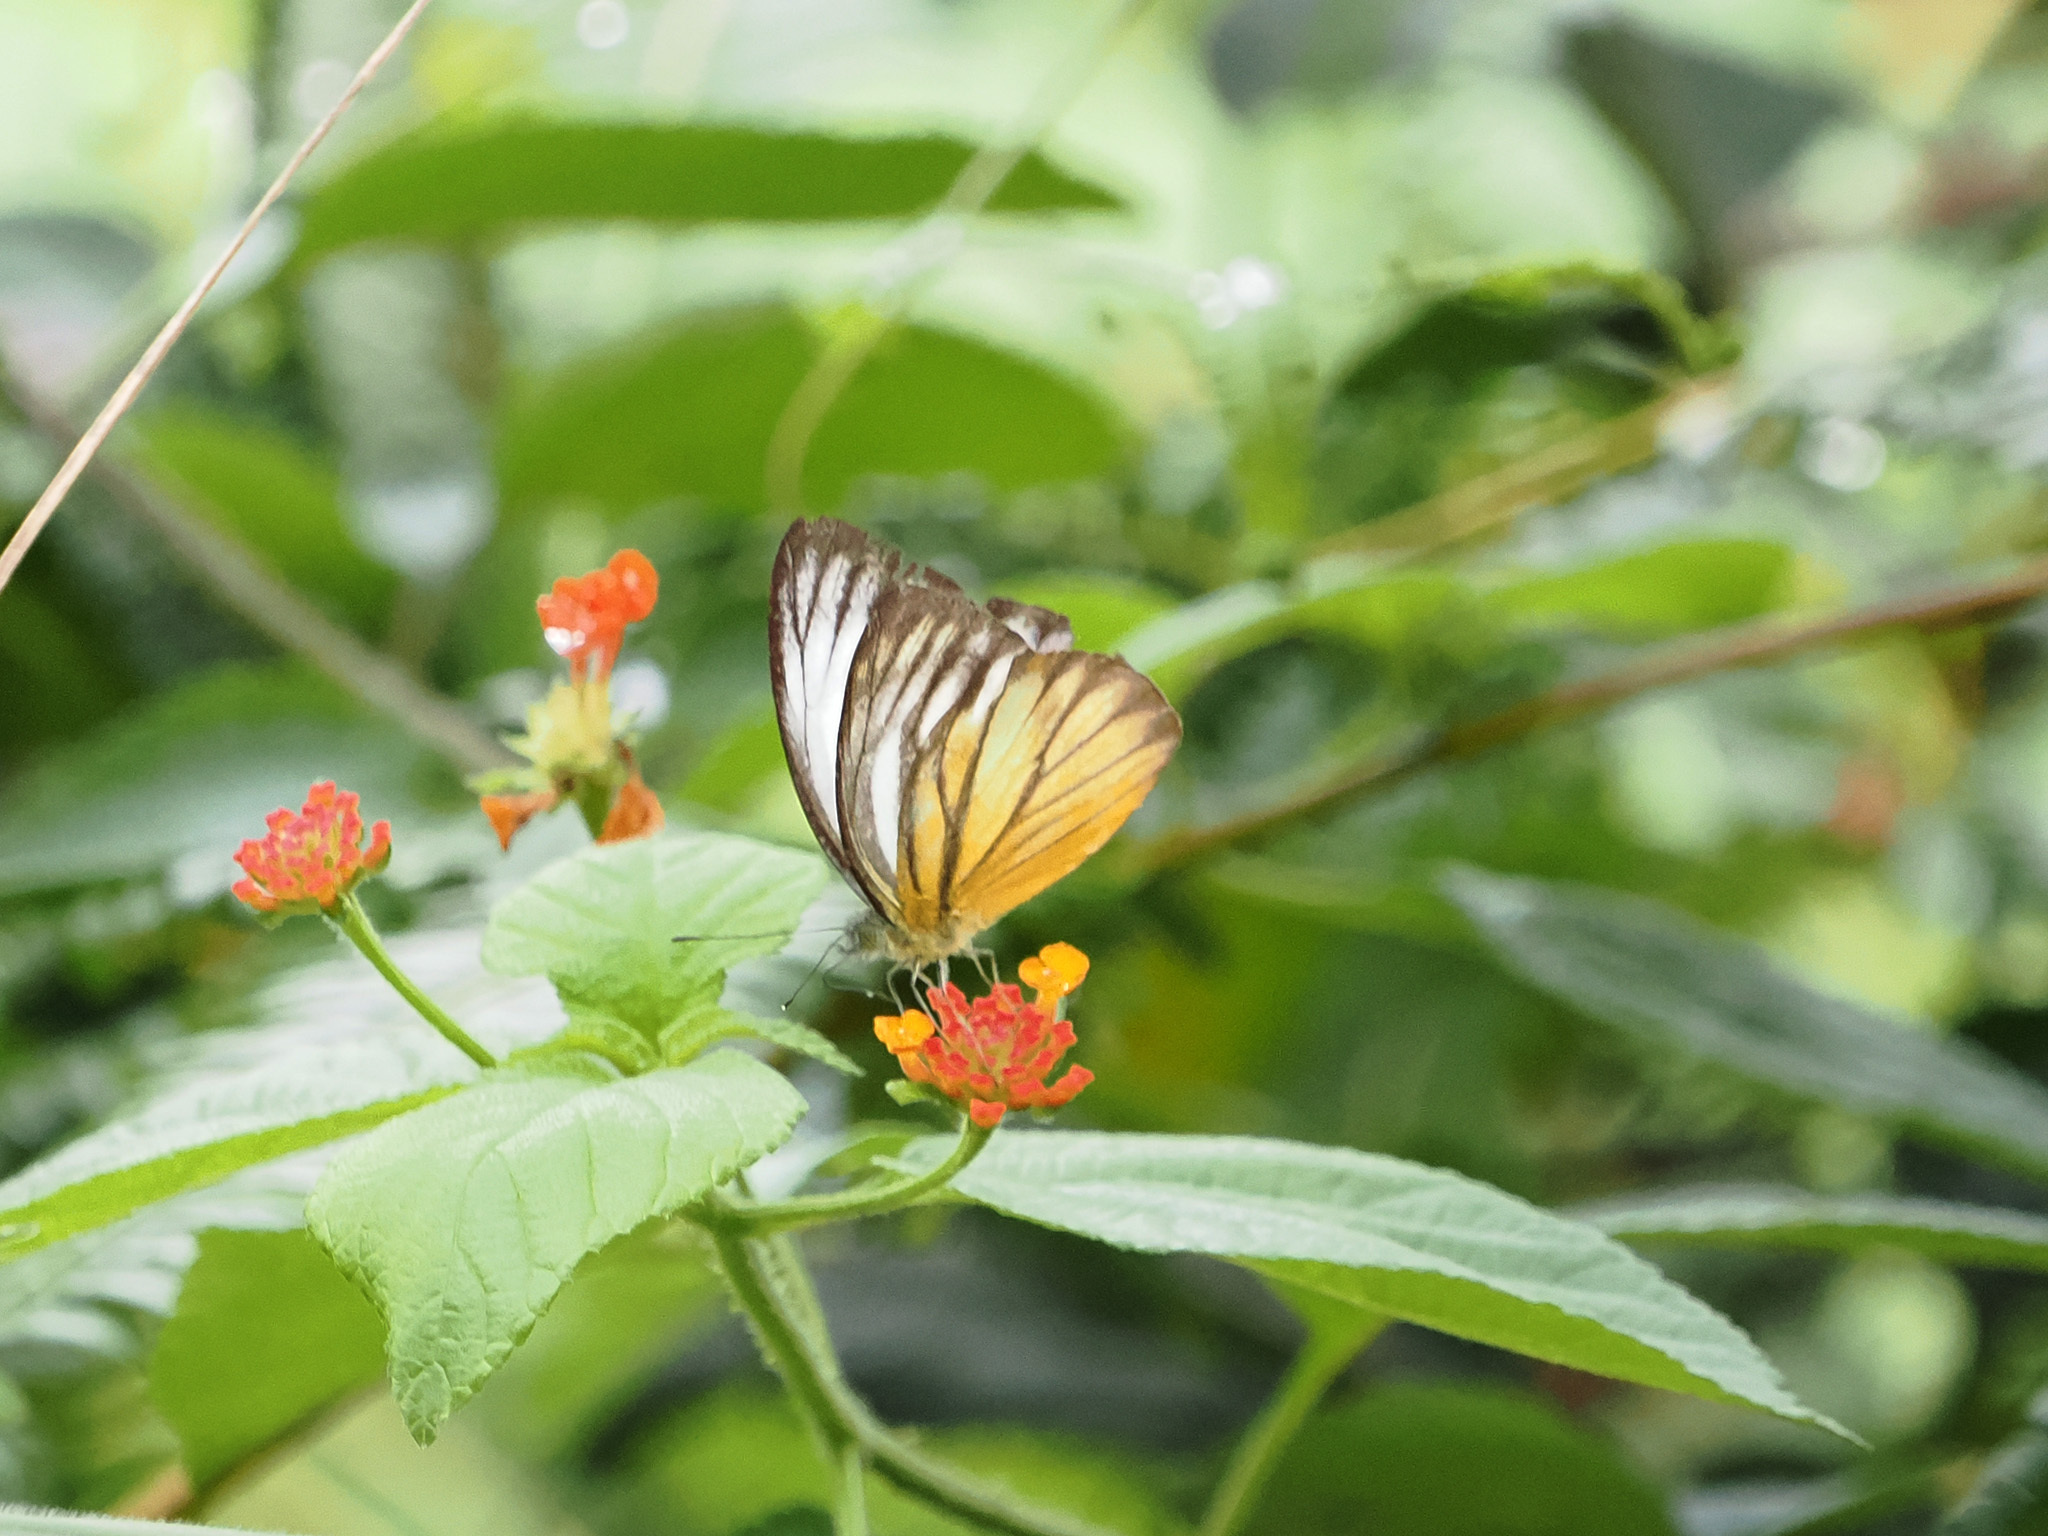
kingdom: Animalia
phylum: Arthropoda
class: Insecta
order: Lepidoptera
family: Pieridae
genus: Cepora
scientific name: Cepora nadina
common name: Lesser gull
